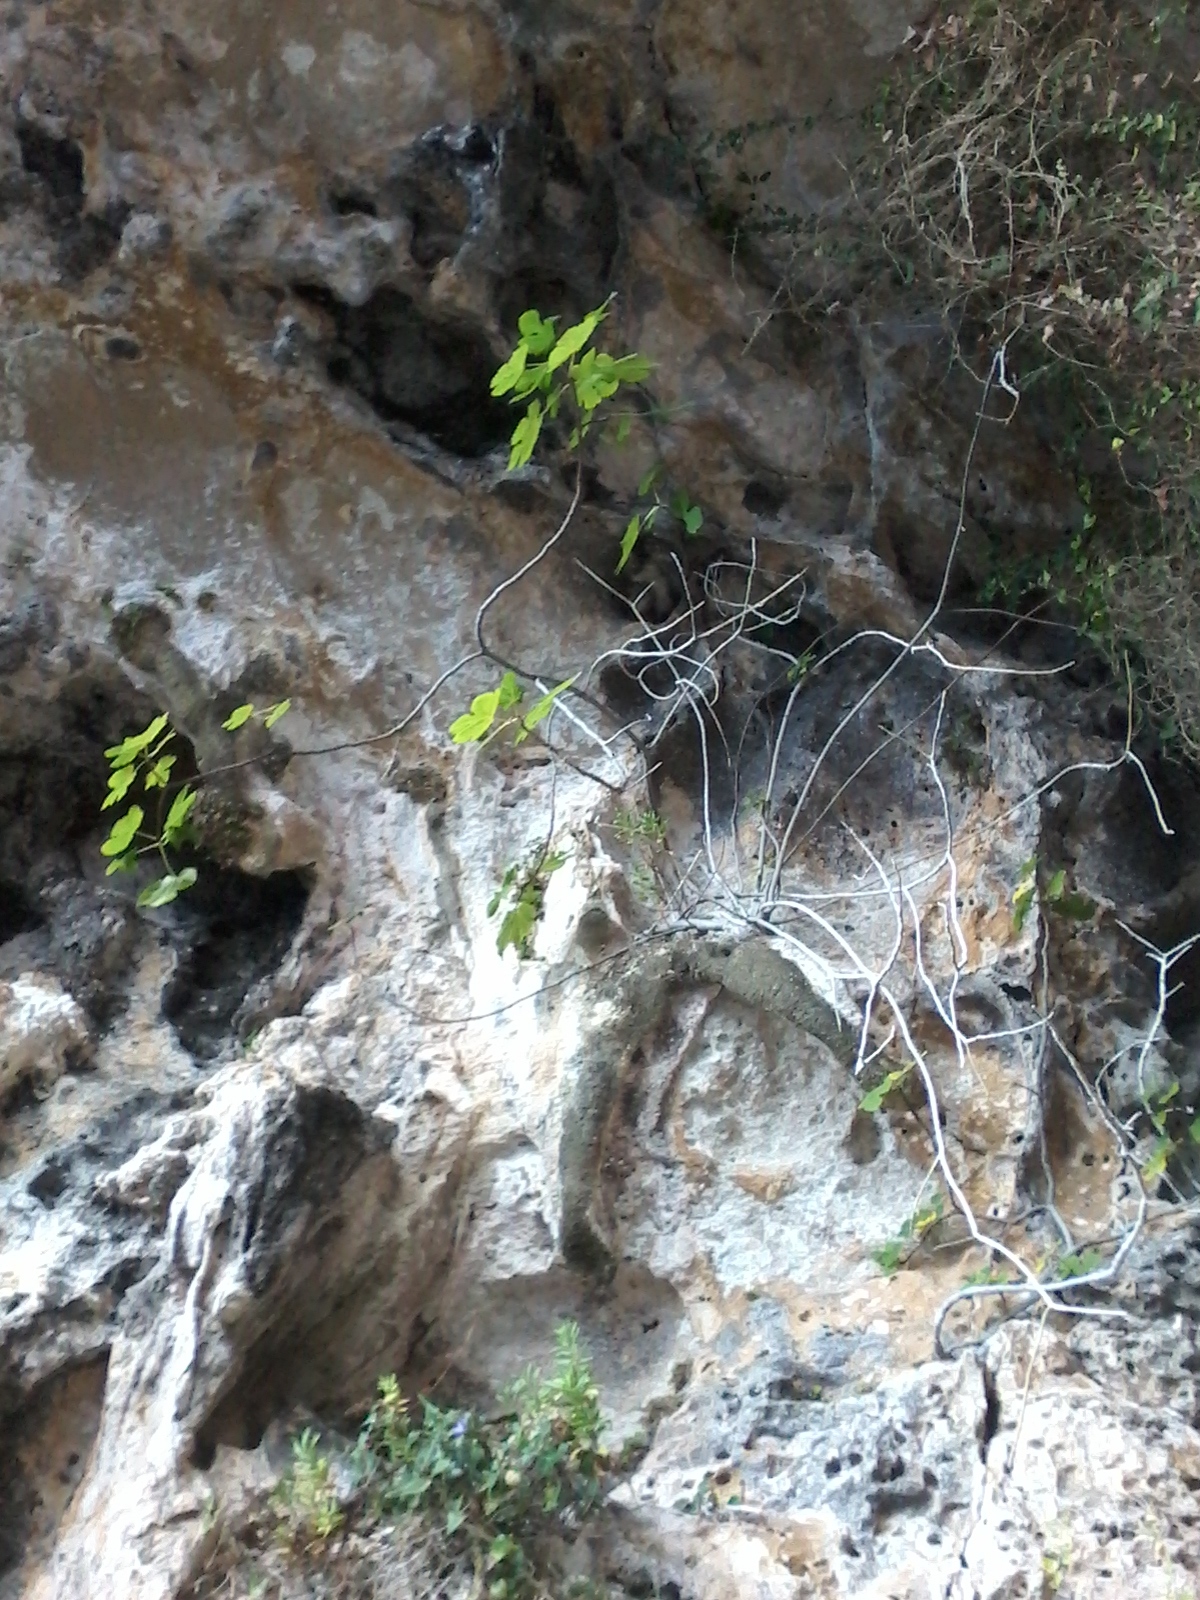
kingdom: Plantae
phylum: Tracheophyta
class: Magnoliopsida
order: Rosales
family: Moraceae
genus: Ficus
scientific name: Ficus carica
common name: Fig
